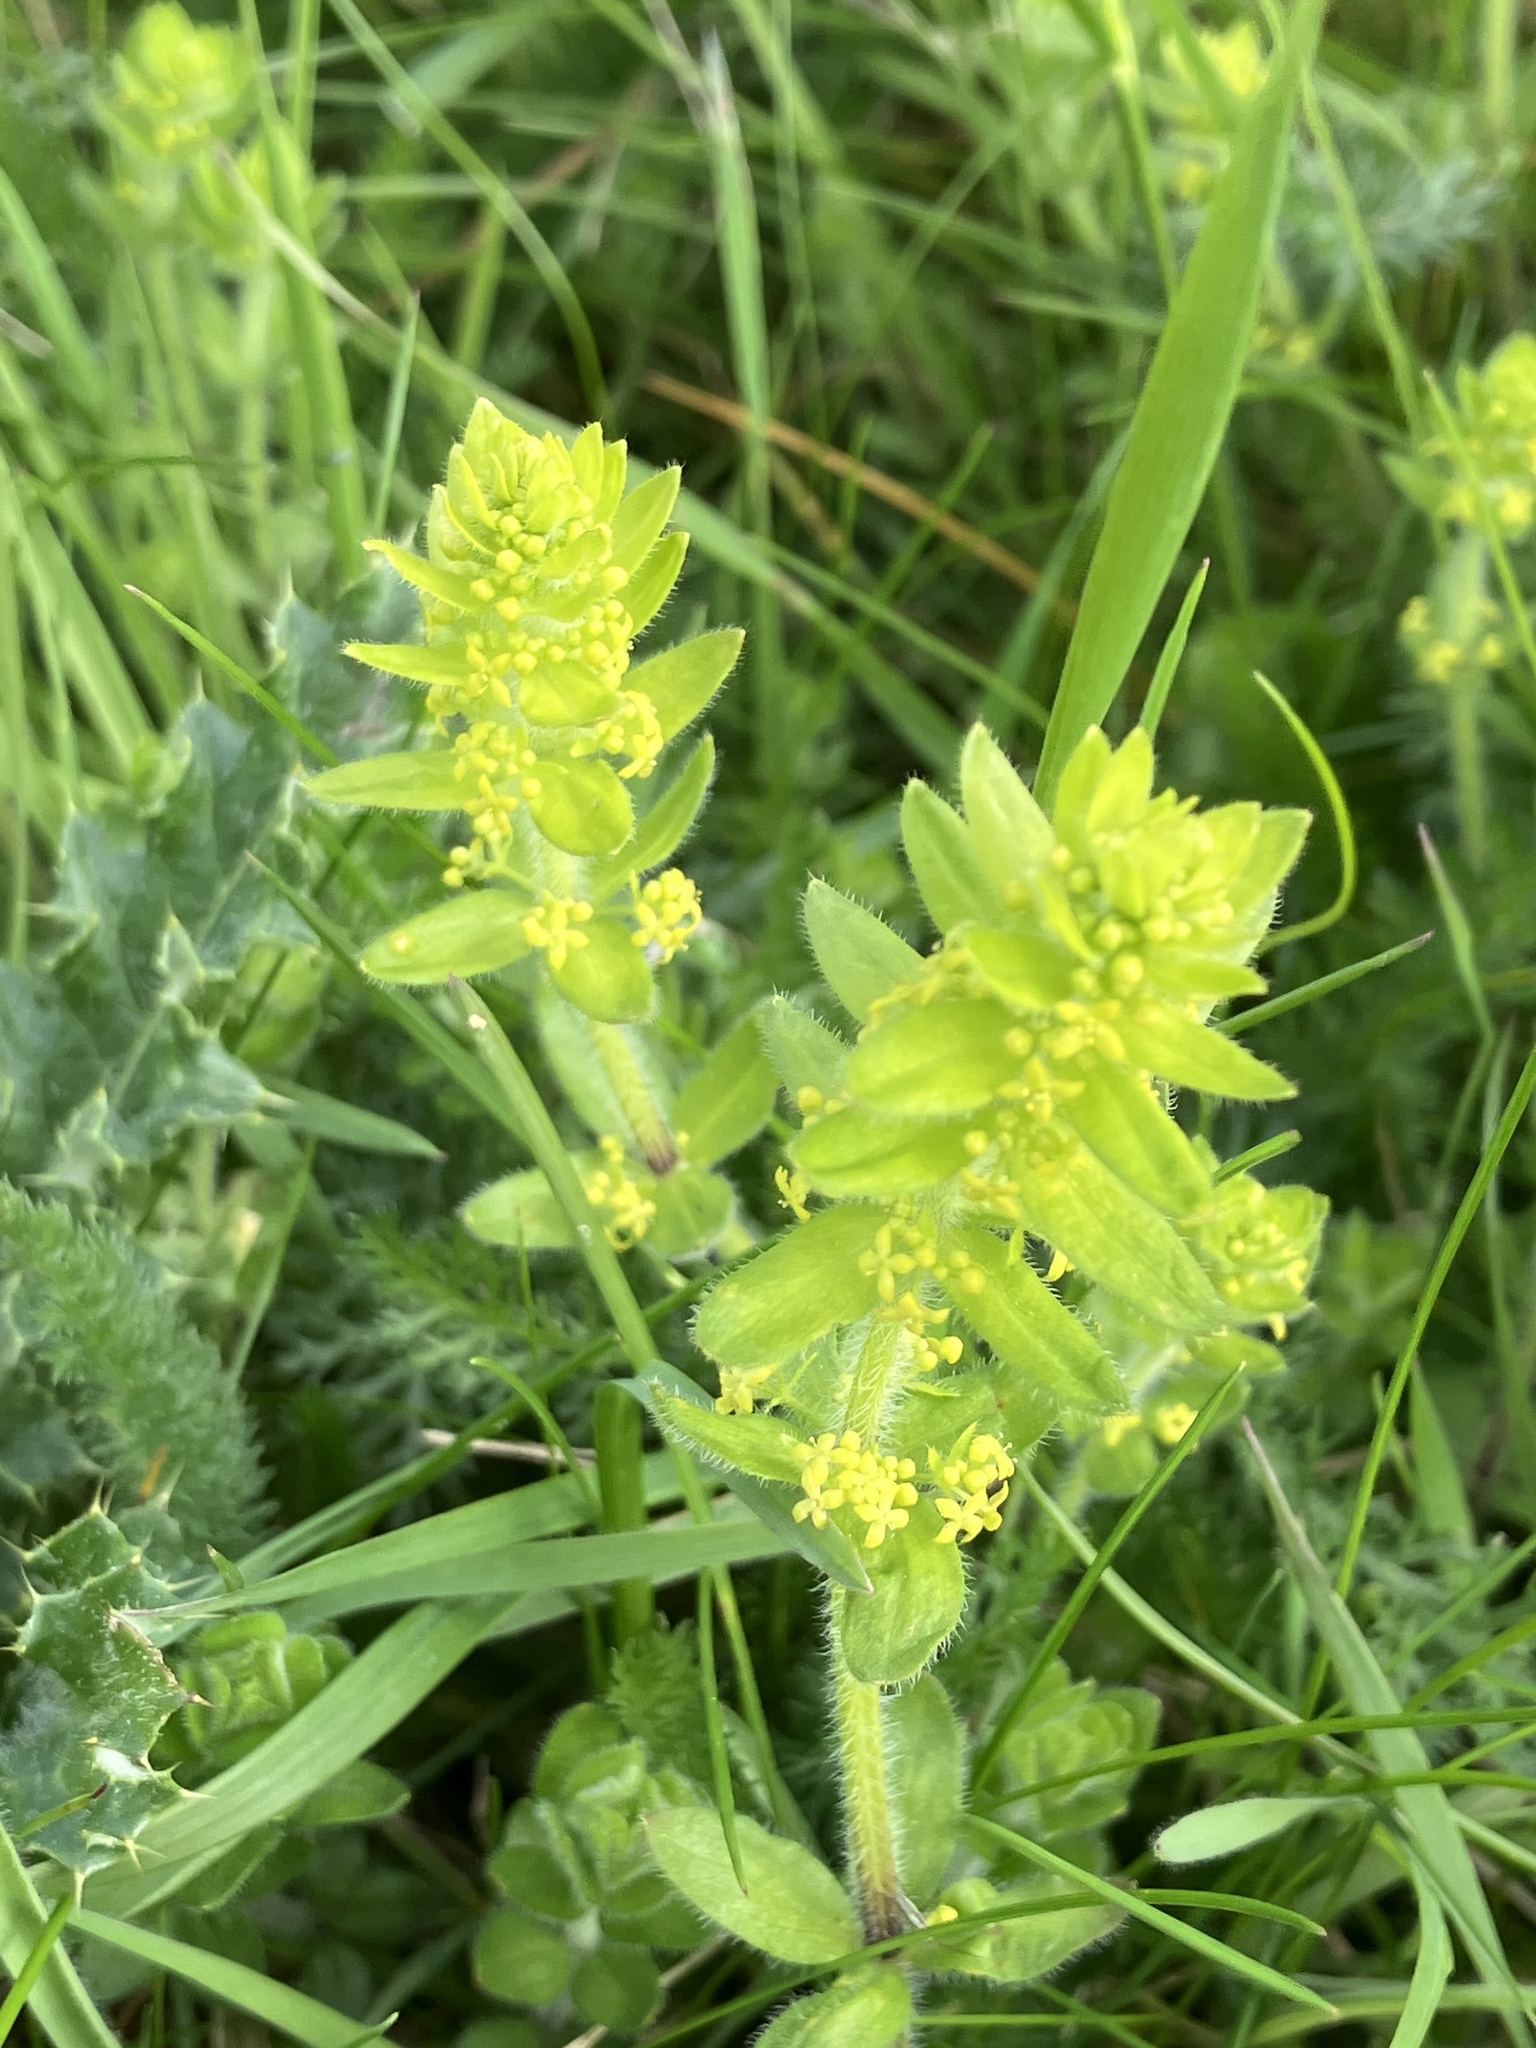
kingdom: Plantae
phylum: Tracheophyta
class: Magnoliopsida
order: Gentianales
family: Rubiaceae
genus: Cruciata
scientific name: Cruciata laevipes
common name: Crosswort
